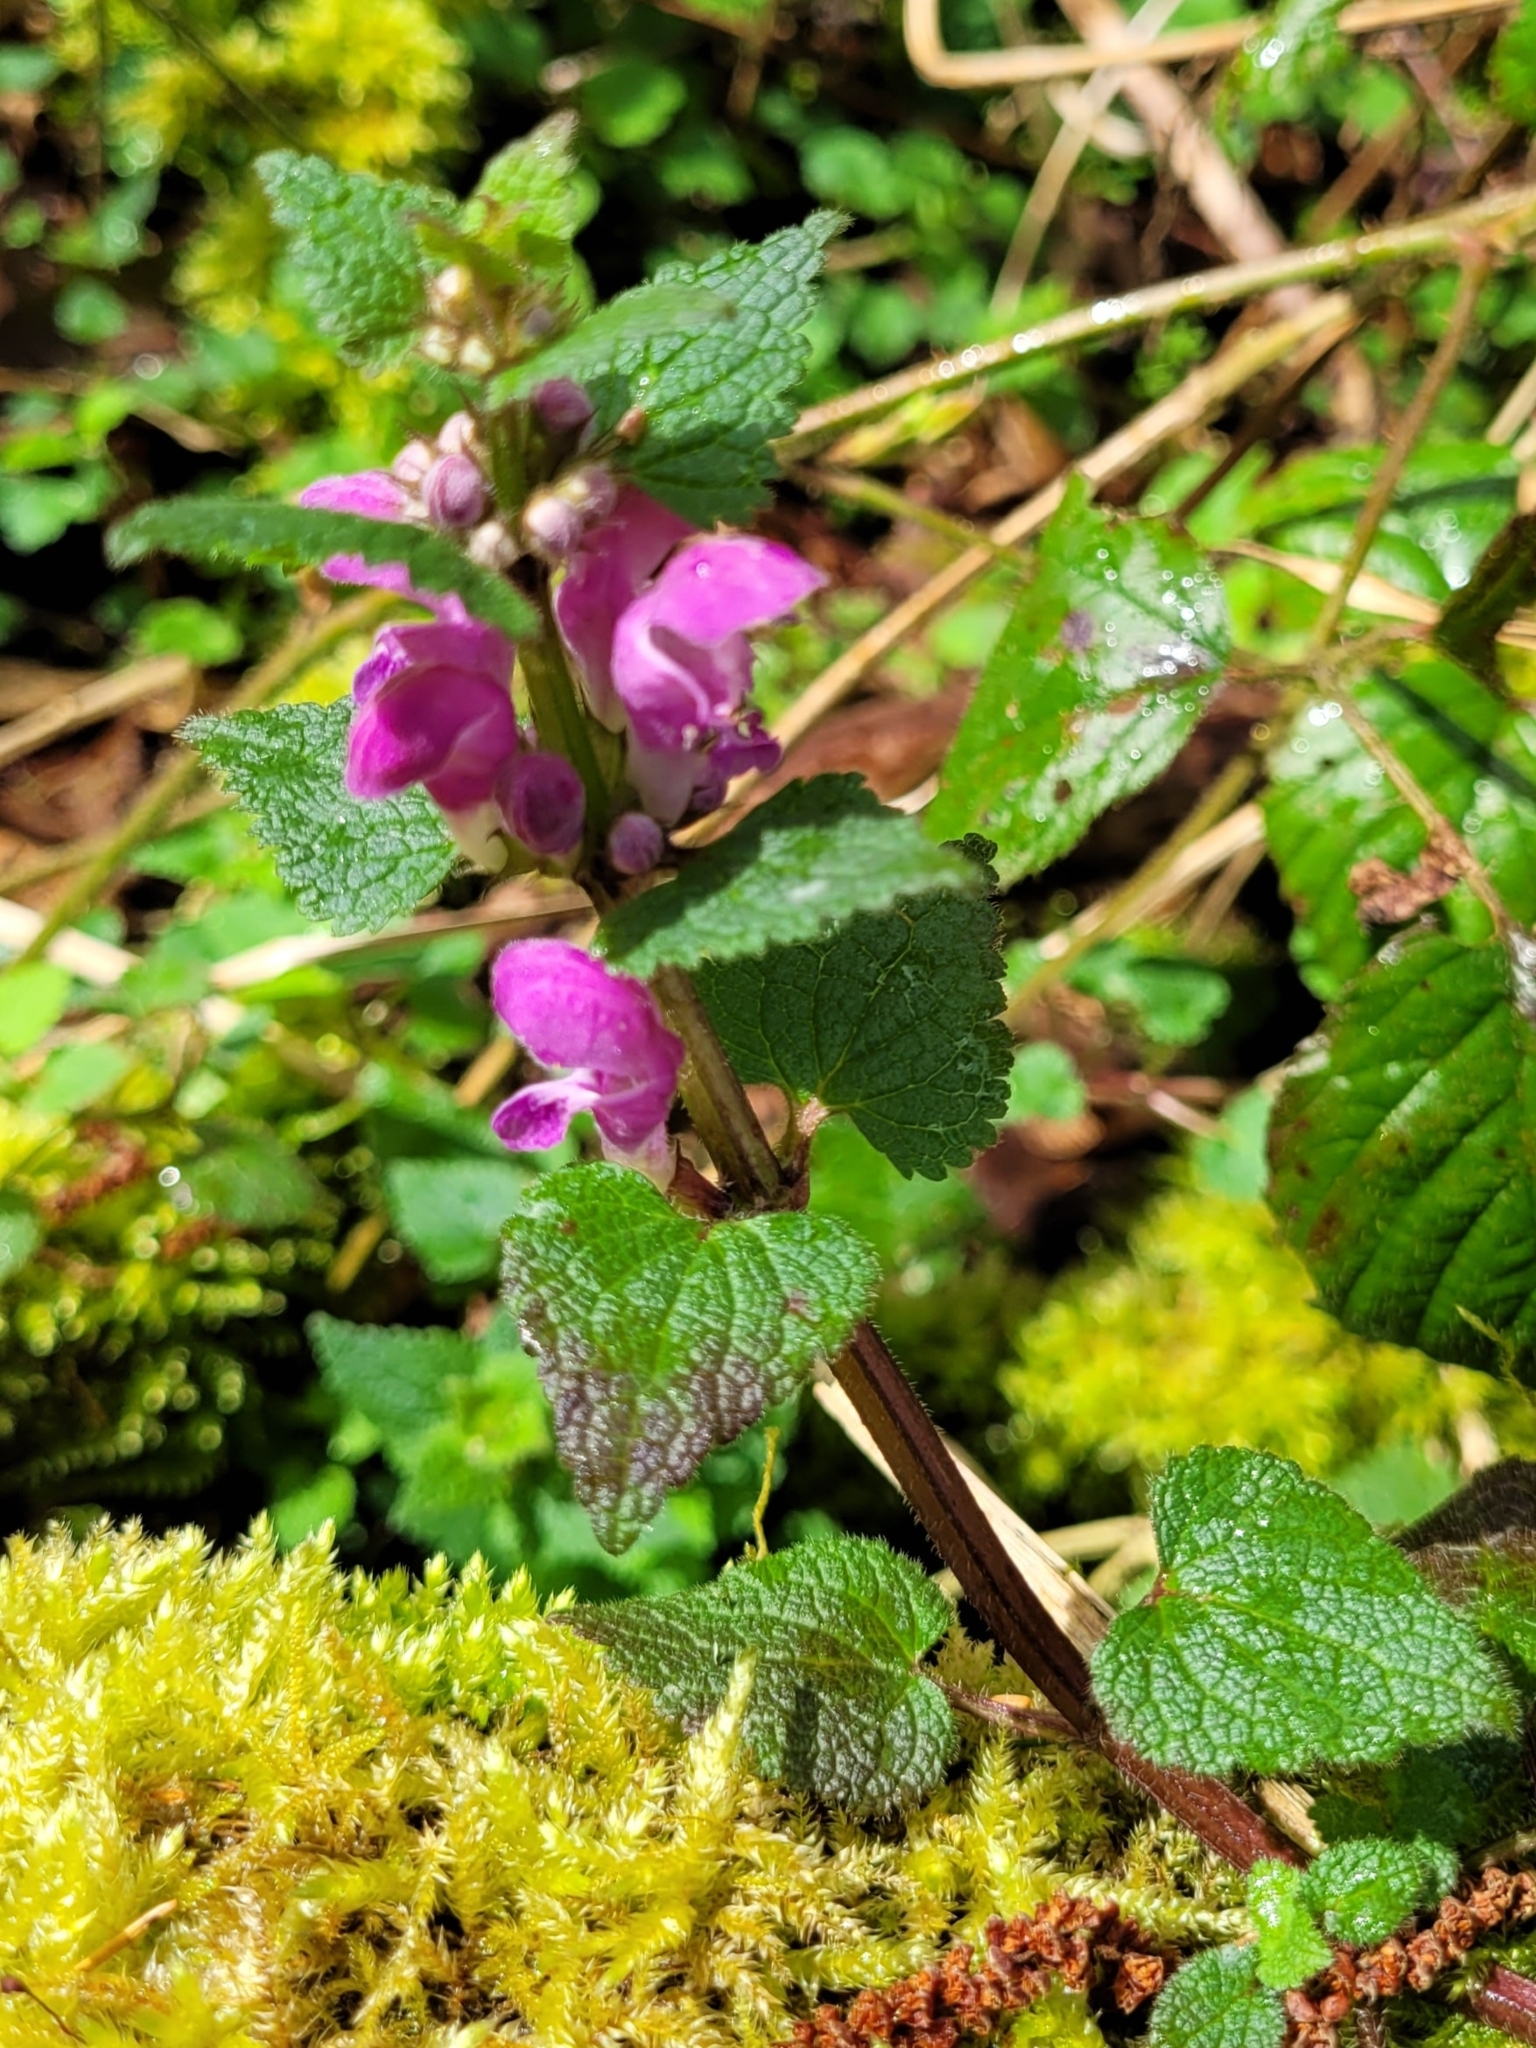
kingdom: Plantae
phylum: Tracheophyta
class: Magnoliopsida
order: Lamiales
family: Lamiaceae
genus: Lamium
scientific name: Lamium maculatum
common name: Spotted dead-nettle
